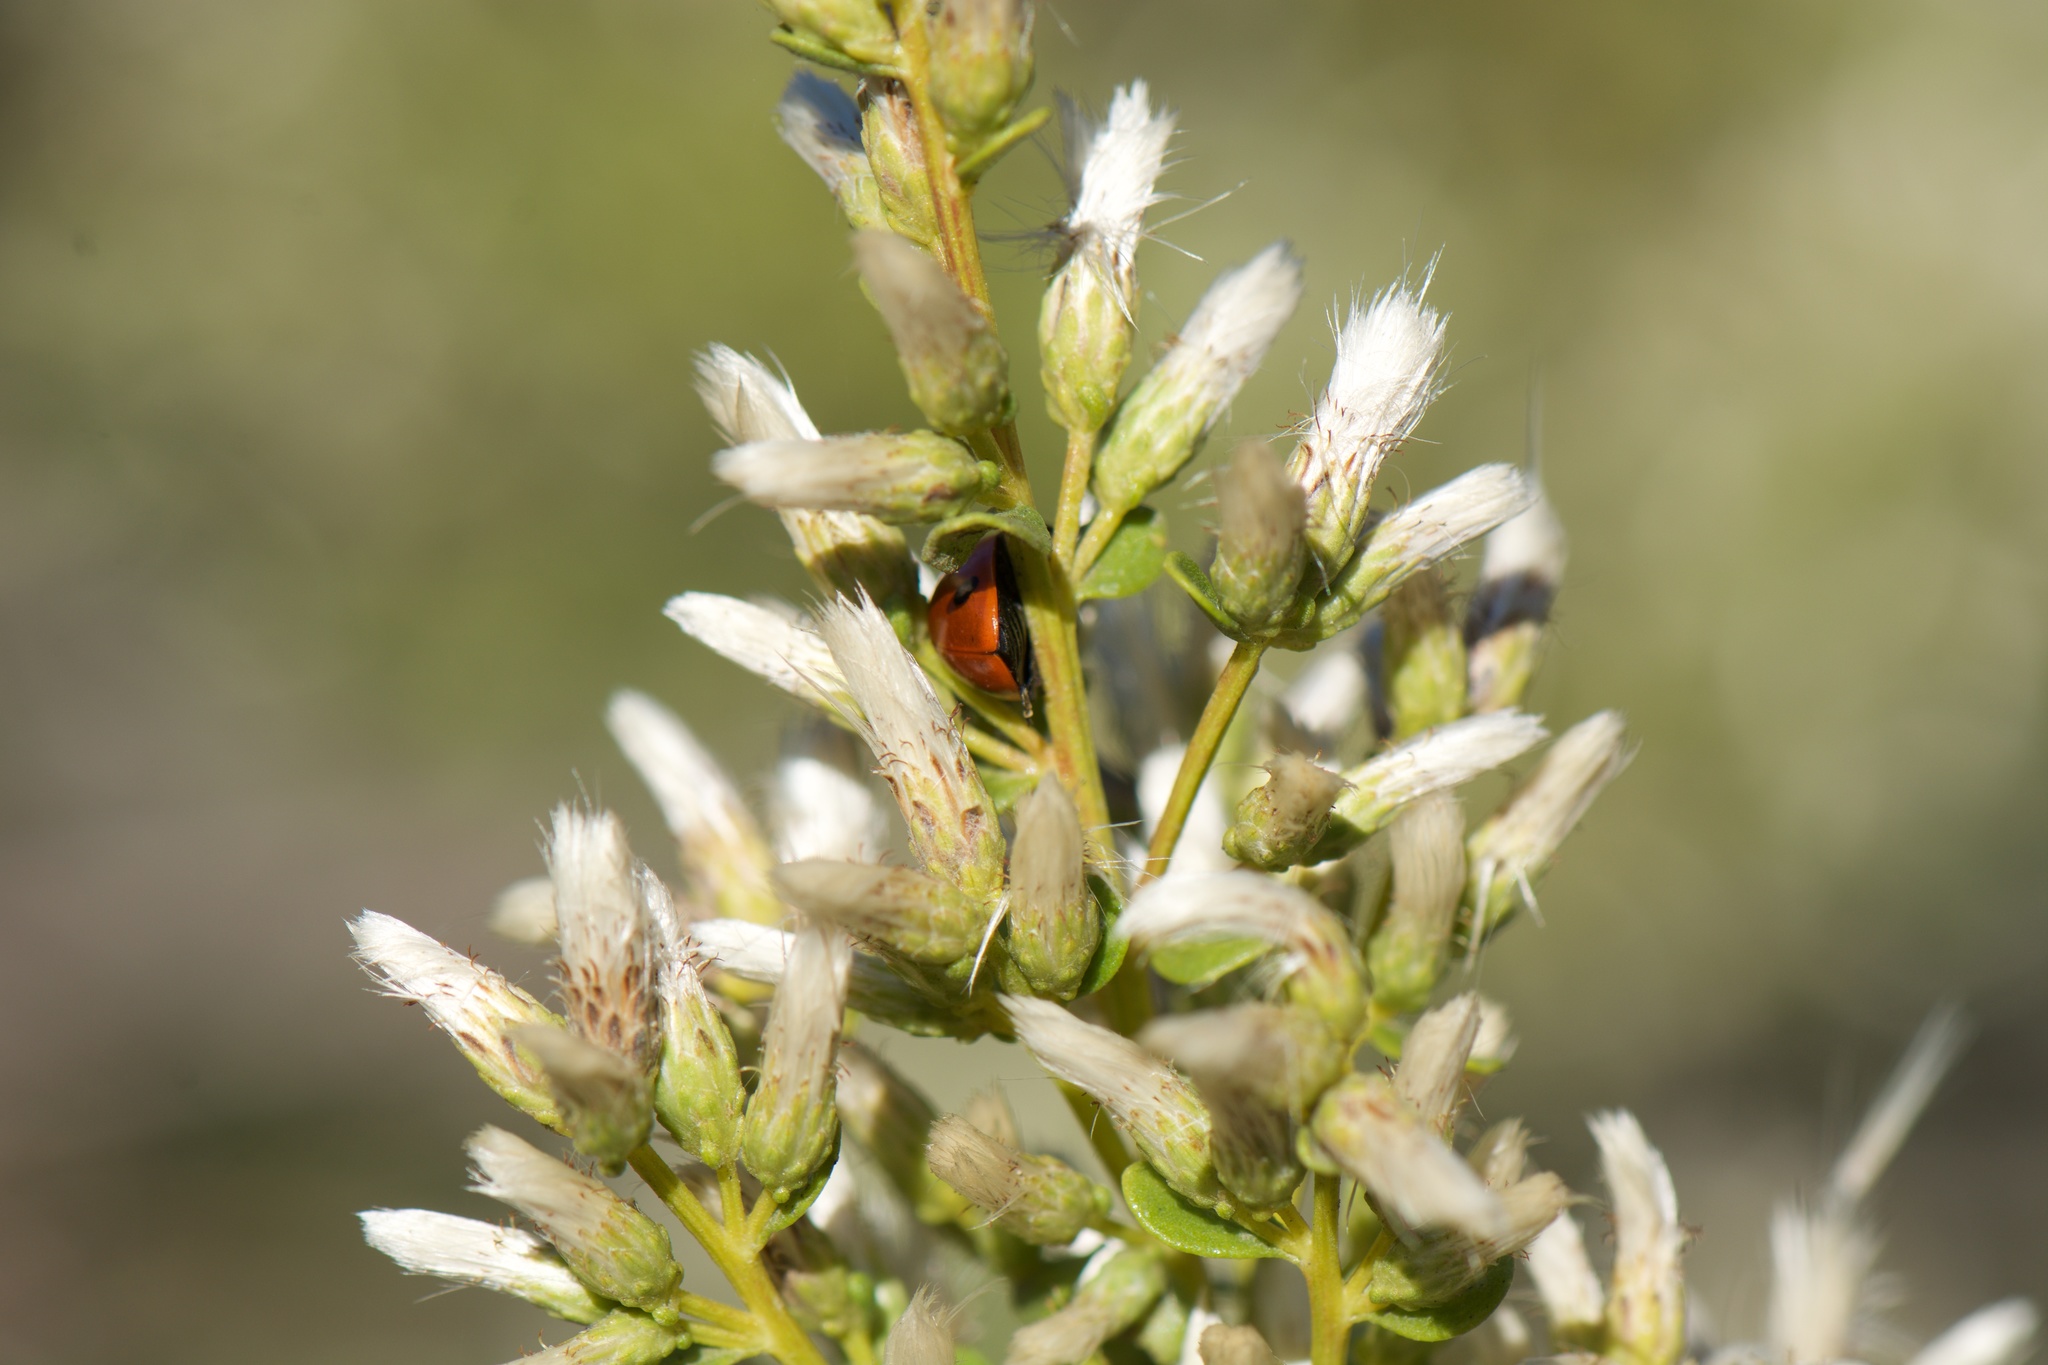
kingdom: Plantae
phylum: Tracheophyta
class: Magnoliopsida
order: Asterales
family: Asteraceae
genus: Baccharis
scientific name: Baccharis pilularis
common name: Coyotebrush
